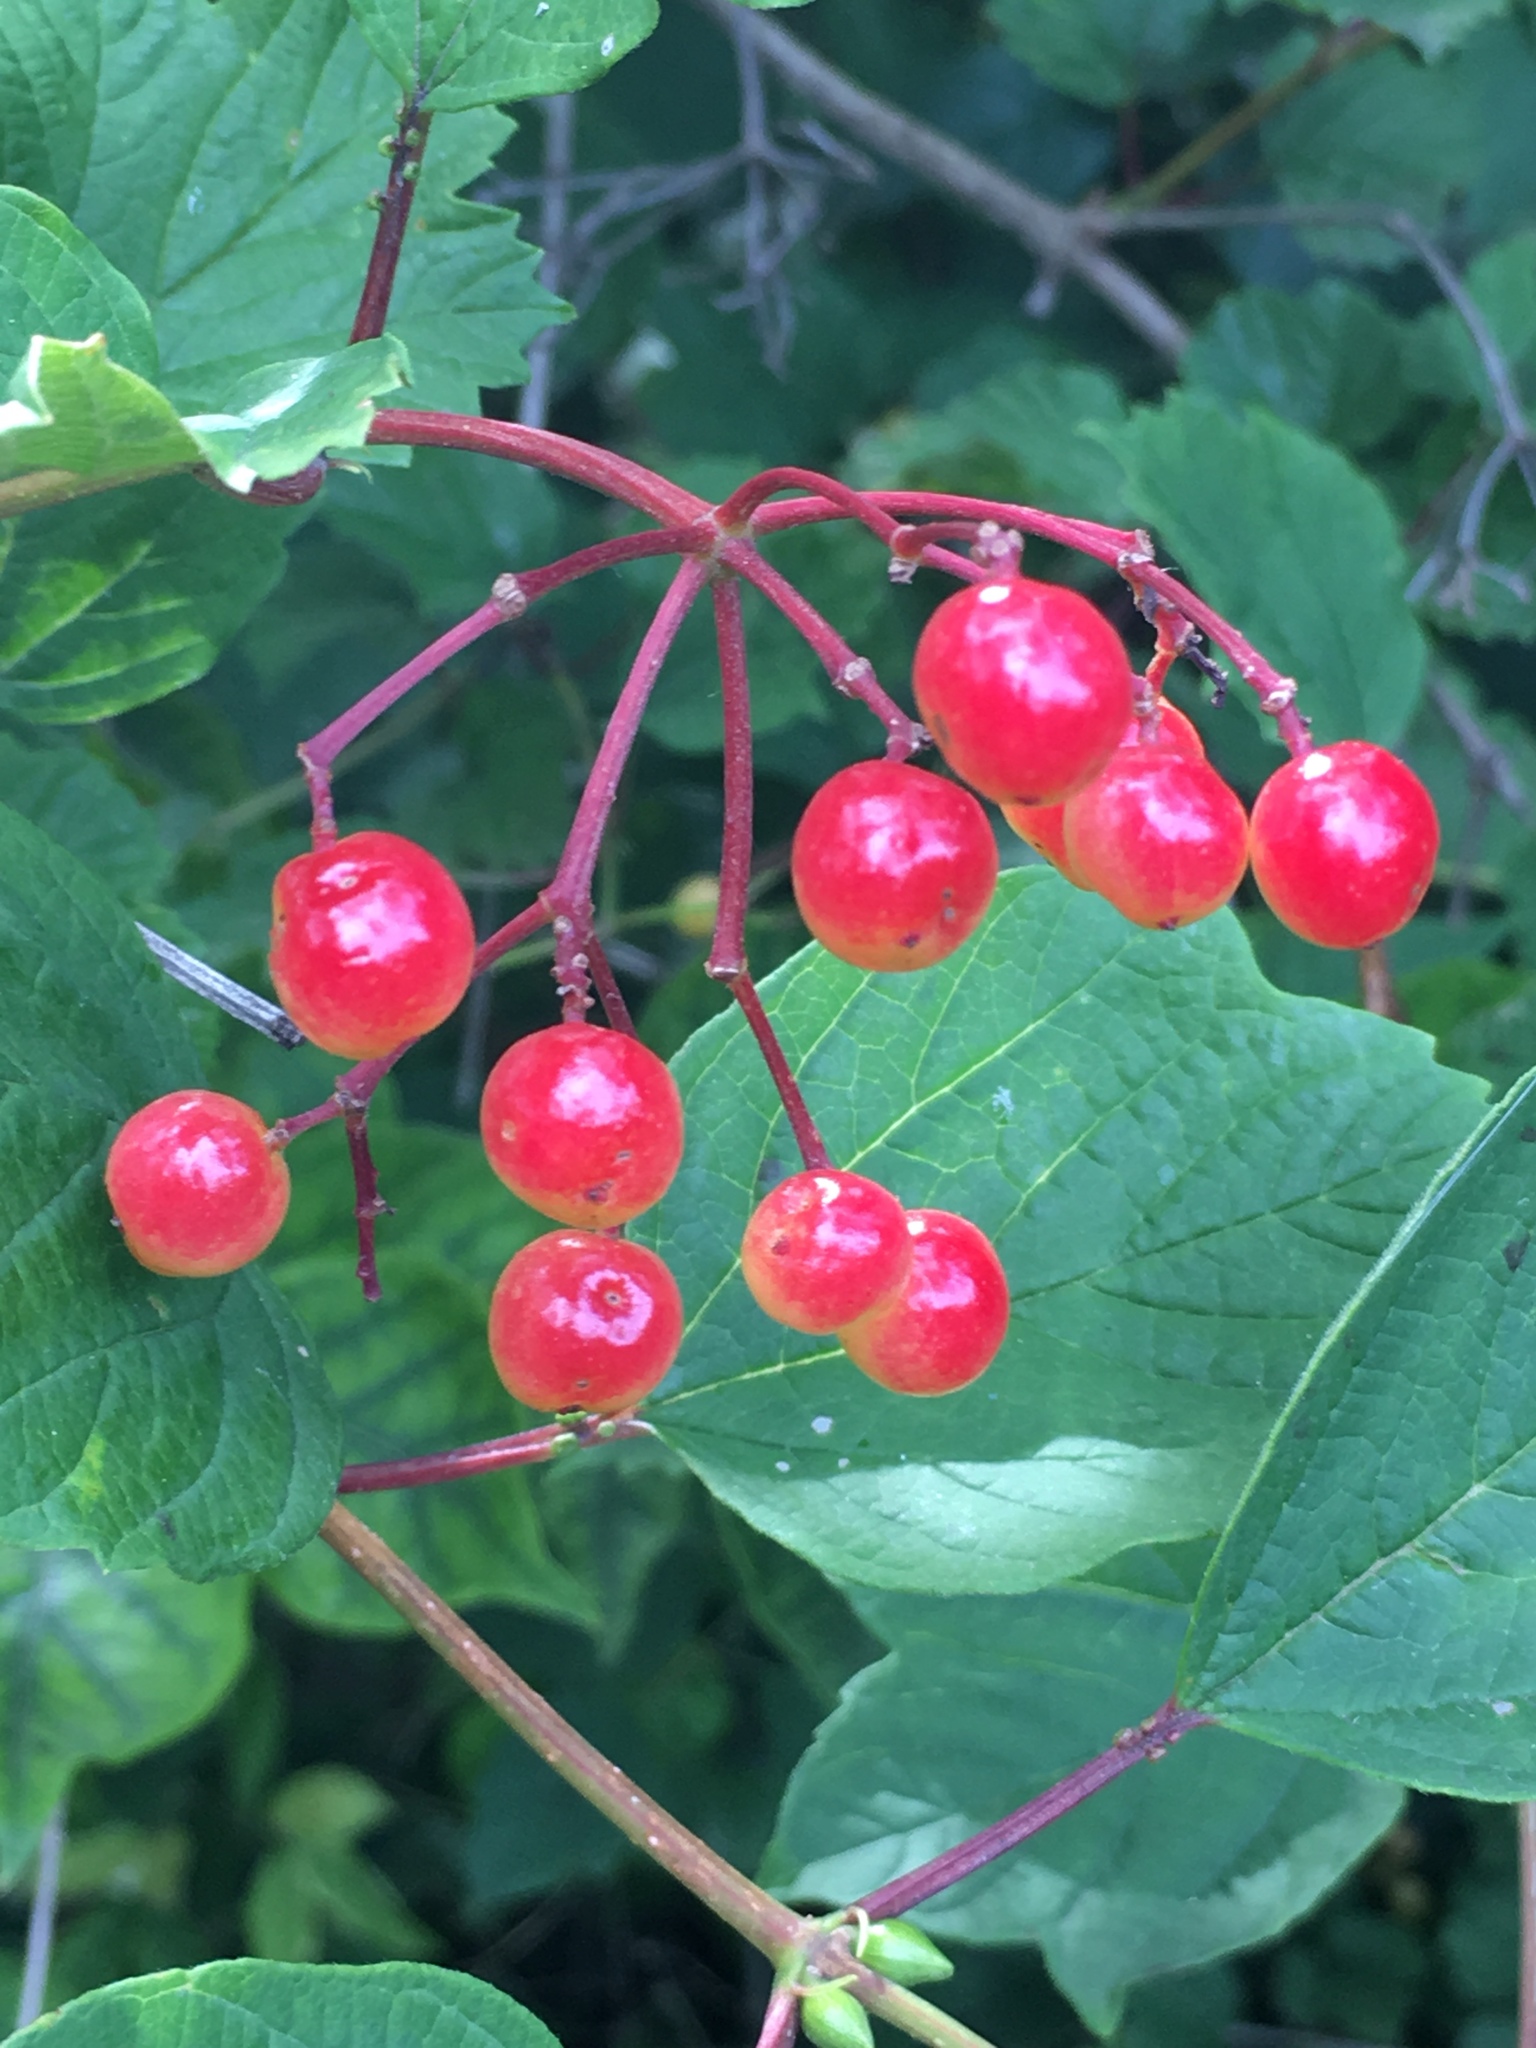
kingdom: Plantae
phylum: Tracheophyta
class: Magnoliopsida
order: Dipsacales
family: Viburnaceae
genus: Viburnum
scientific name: Viburnum opulus
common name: Guelder-rose
